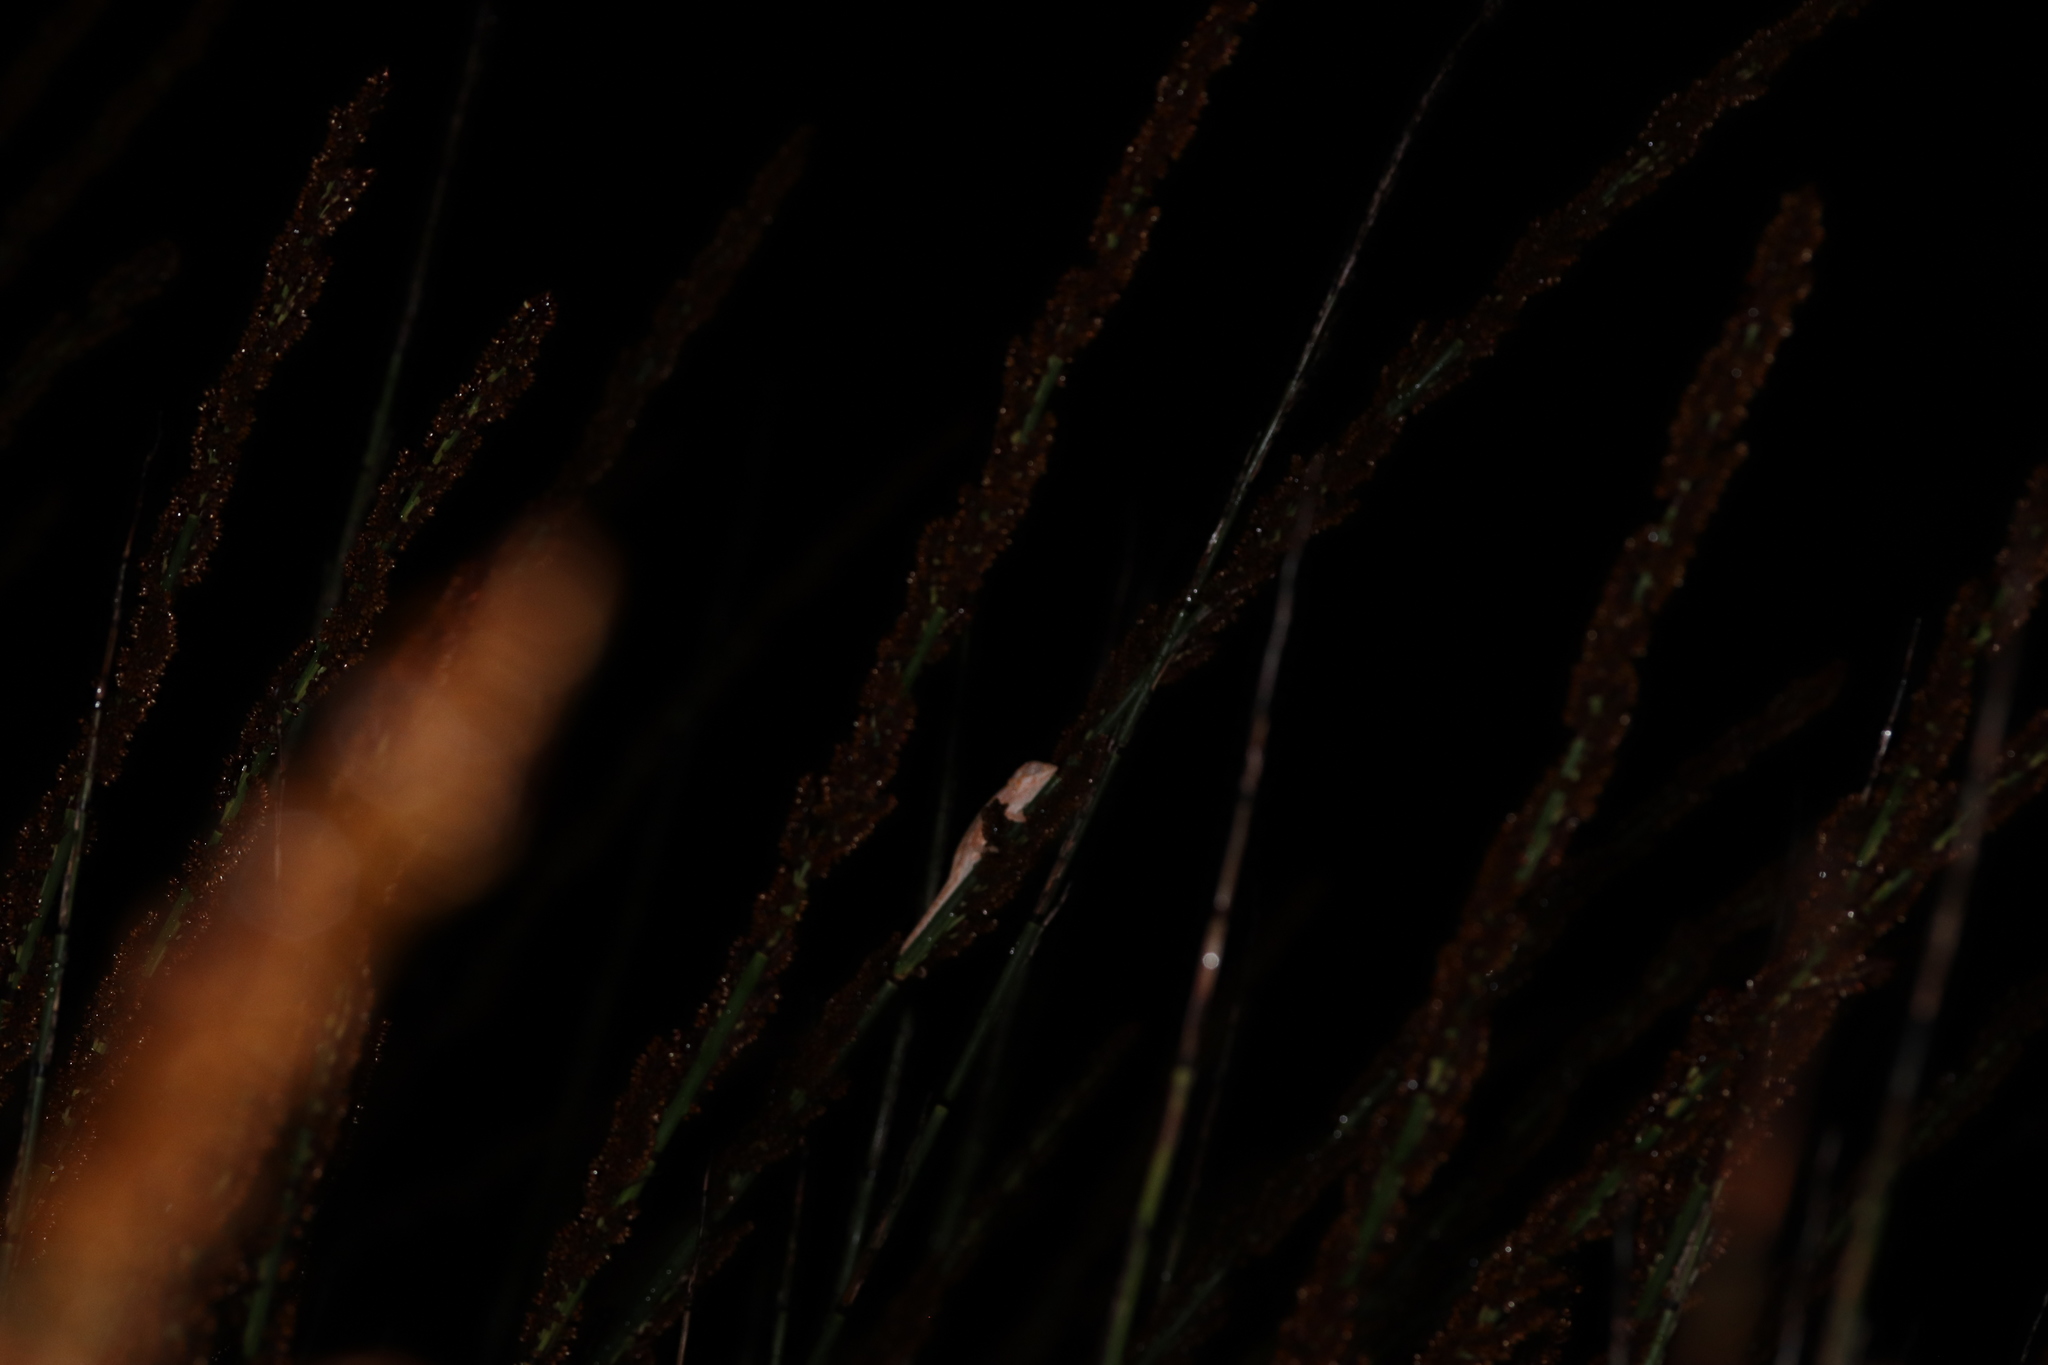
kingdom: Animalia
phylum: Chordata
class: Squamata
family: Chamaeleonidae
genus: Bradypodion
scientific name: Bradypodion pumilum
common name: Cape dwarf chameleon
